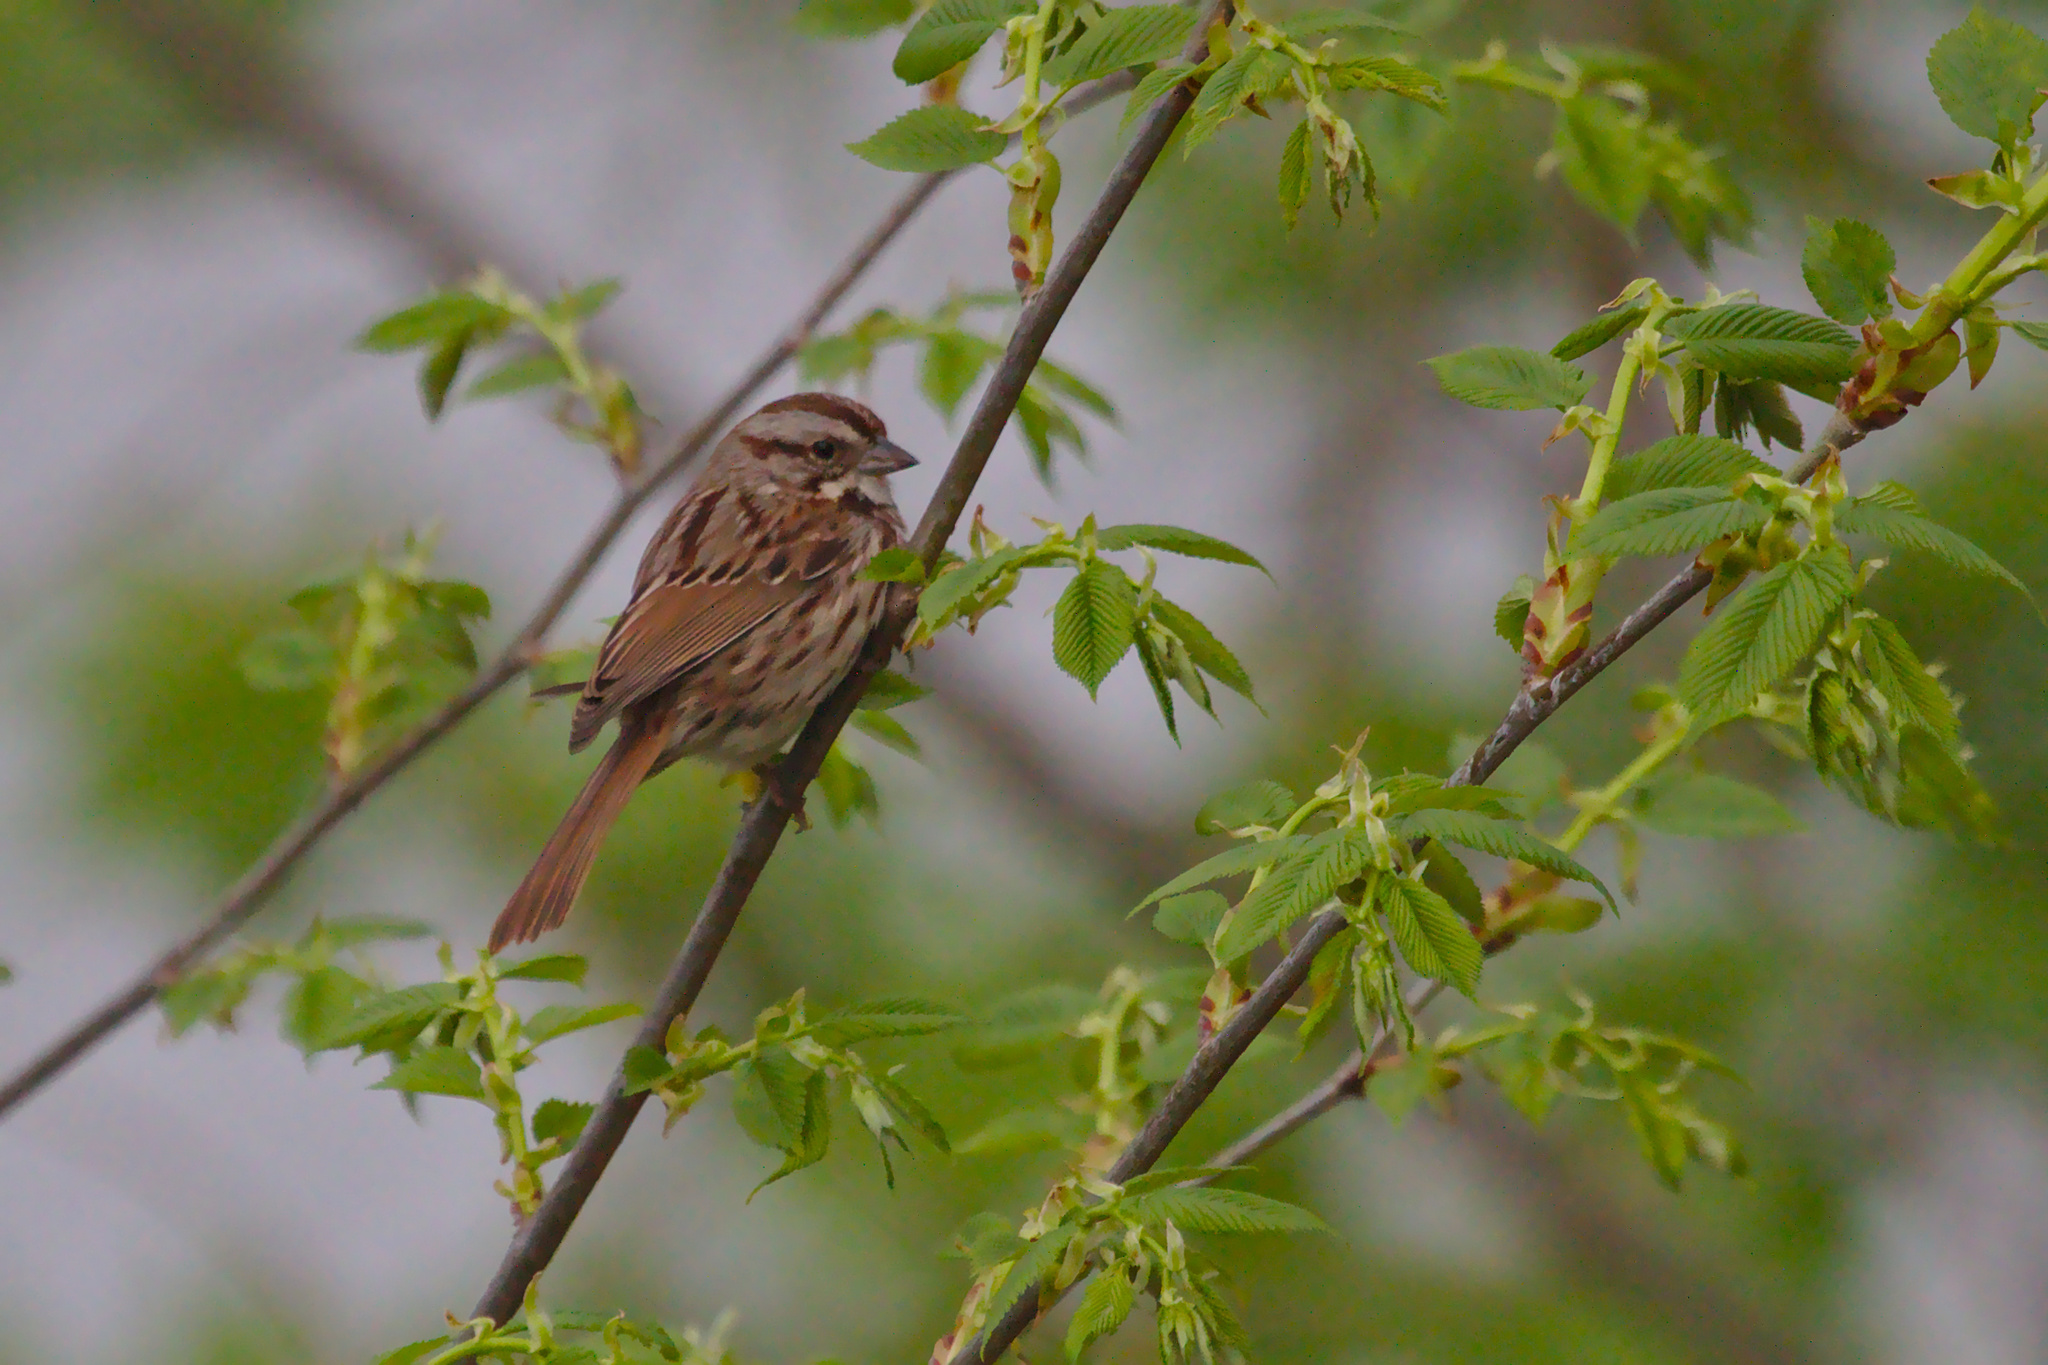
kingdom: Animalia
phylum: Chordata
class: Aves
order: Passeriformes
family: Passerellidae
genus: Melospiza
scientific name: Melospiza melodia
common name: Song sparrow
